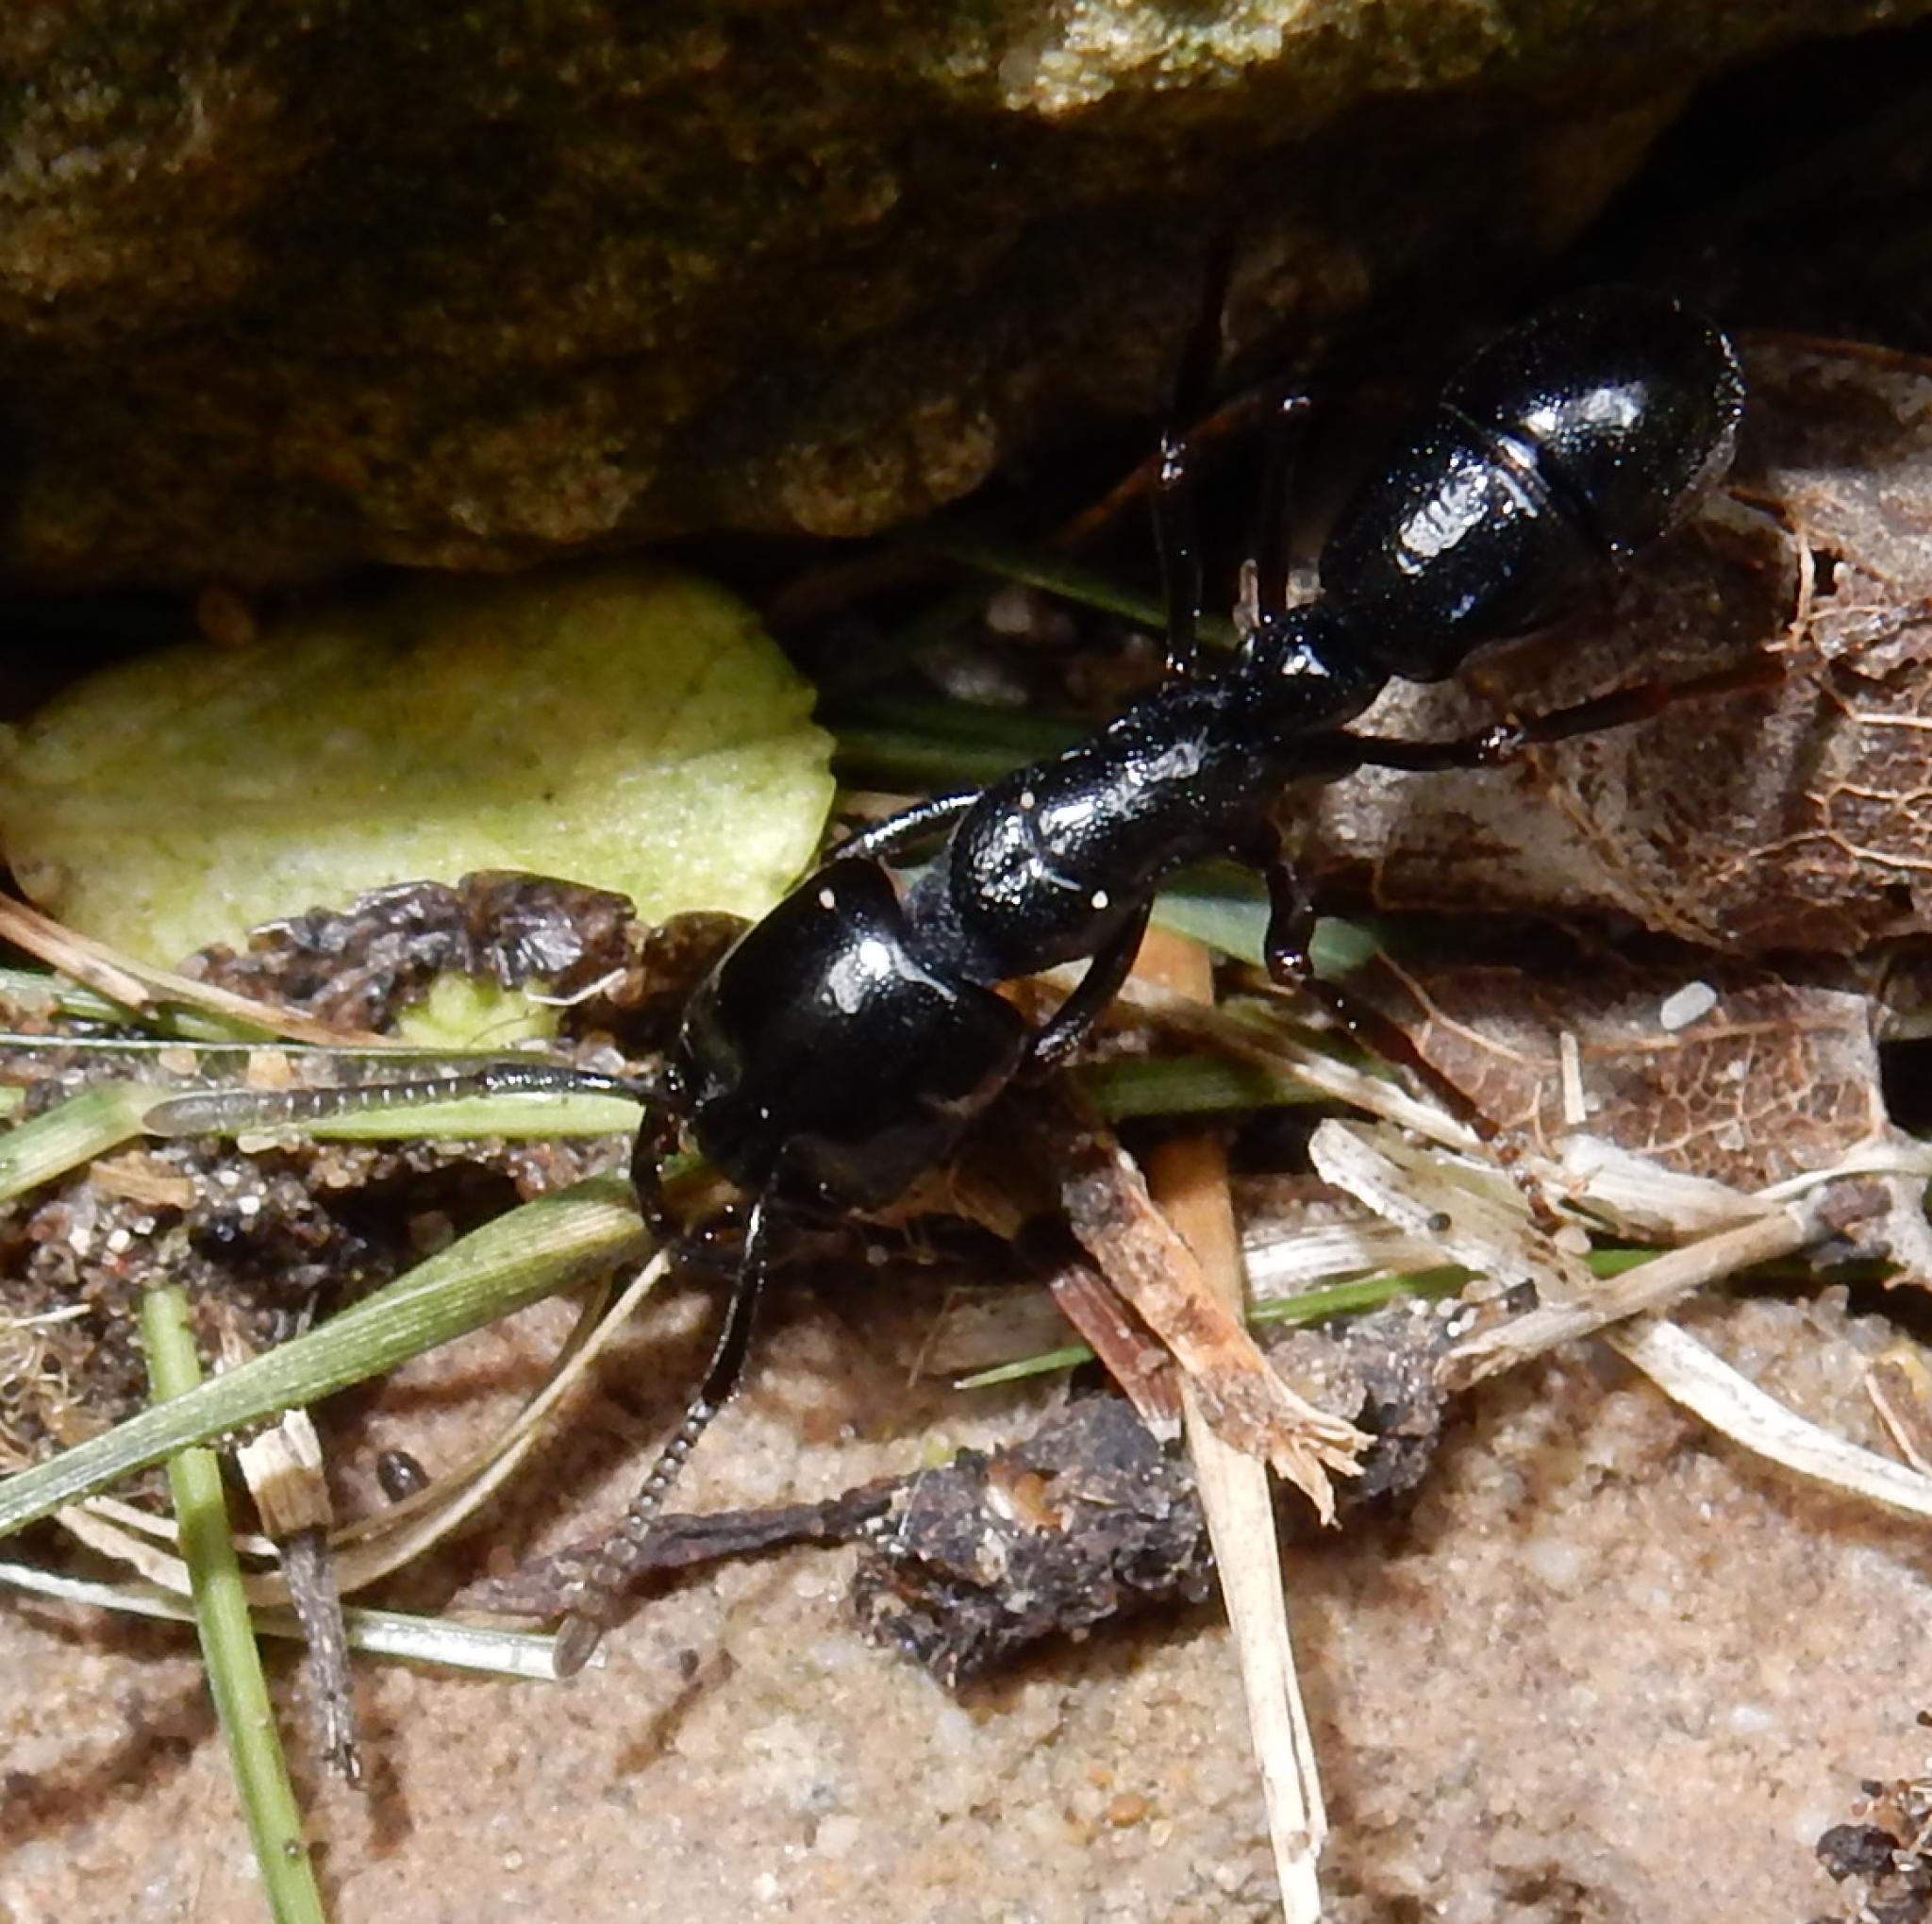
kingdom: Animalia
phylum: Arthropoda
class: Insecta
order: Hymenoptera
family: Formicidae
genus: Plectroctena
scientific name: Plectroctena mandibularis
